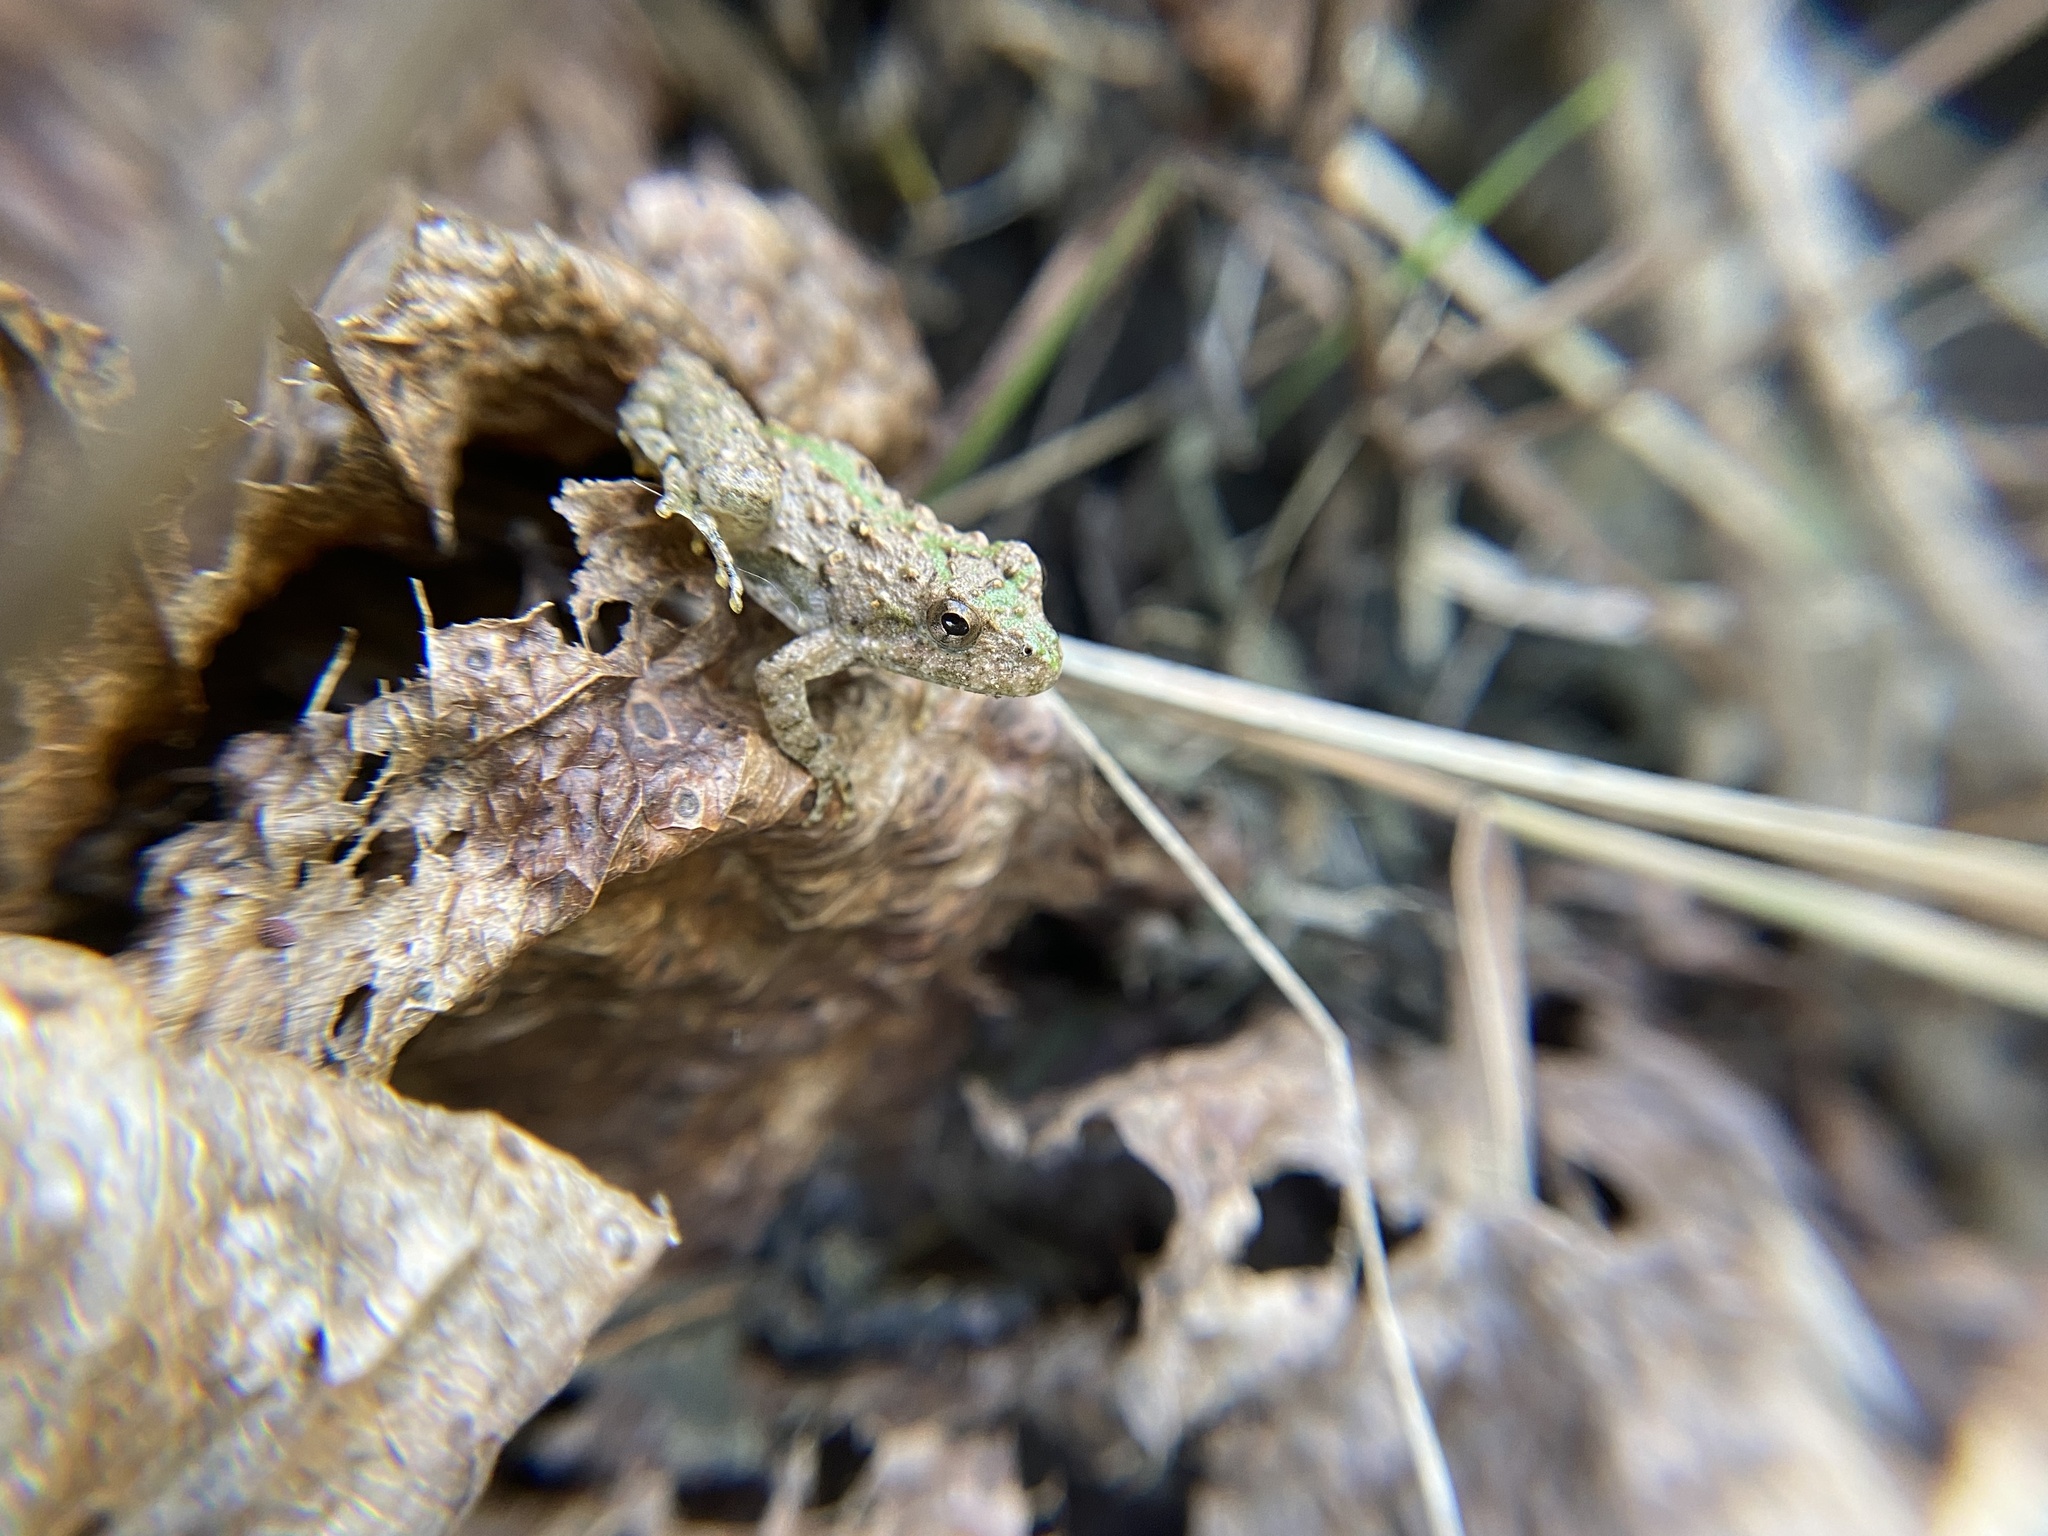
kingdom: Animalia
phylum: Chordata
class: Amphibia
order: Anura
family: Hylidae
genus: Acris
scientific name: Acris crepitans
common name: Northern cricket frog
